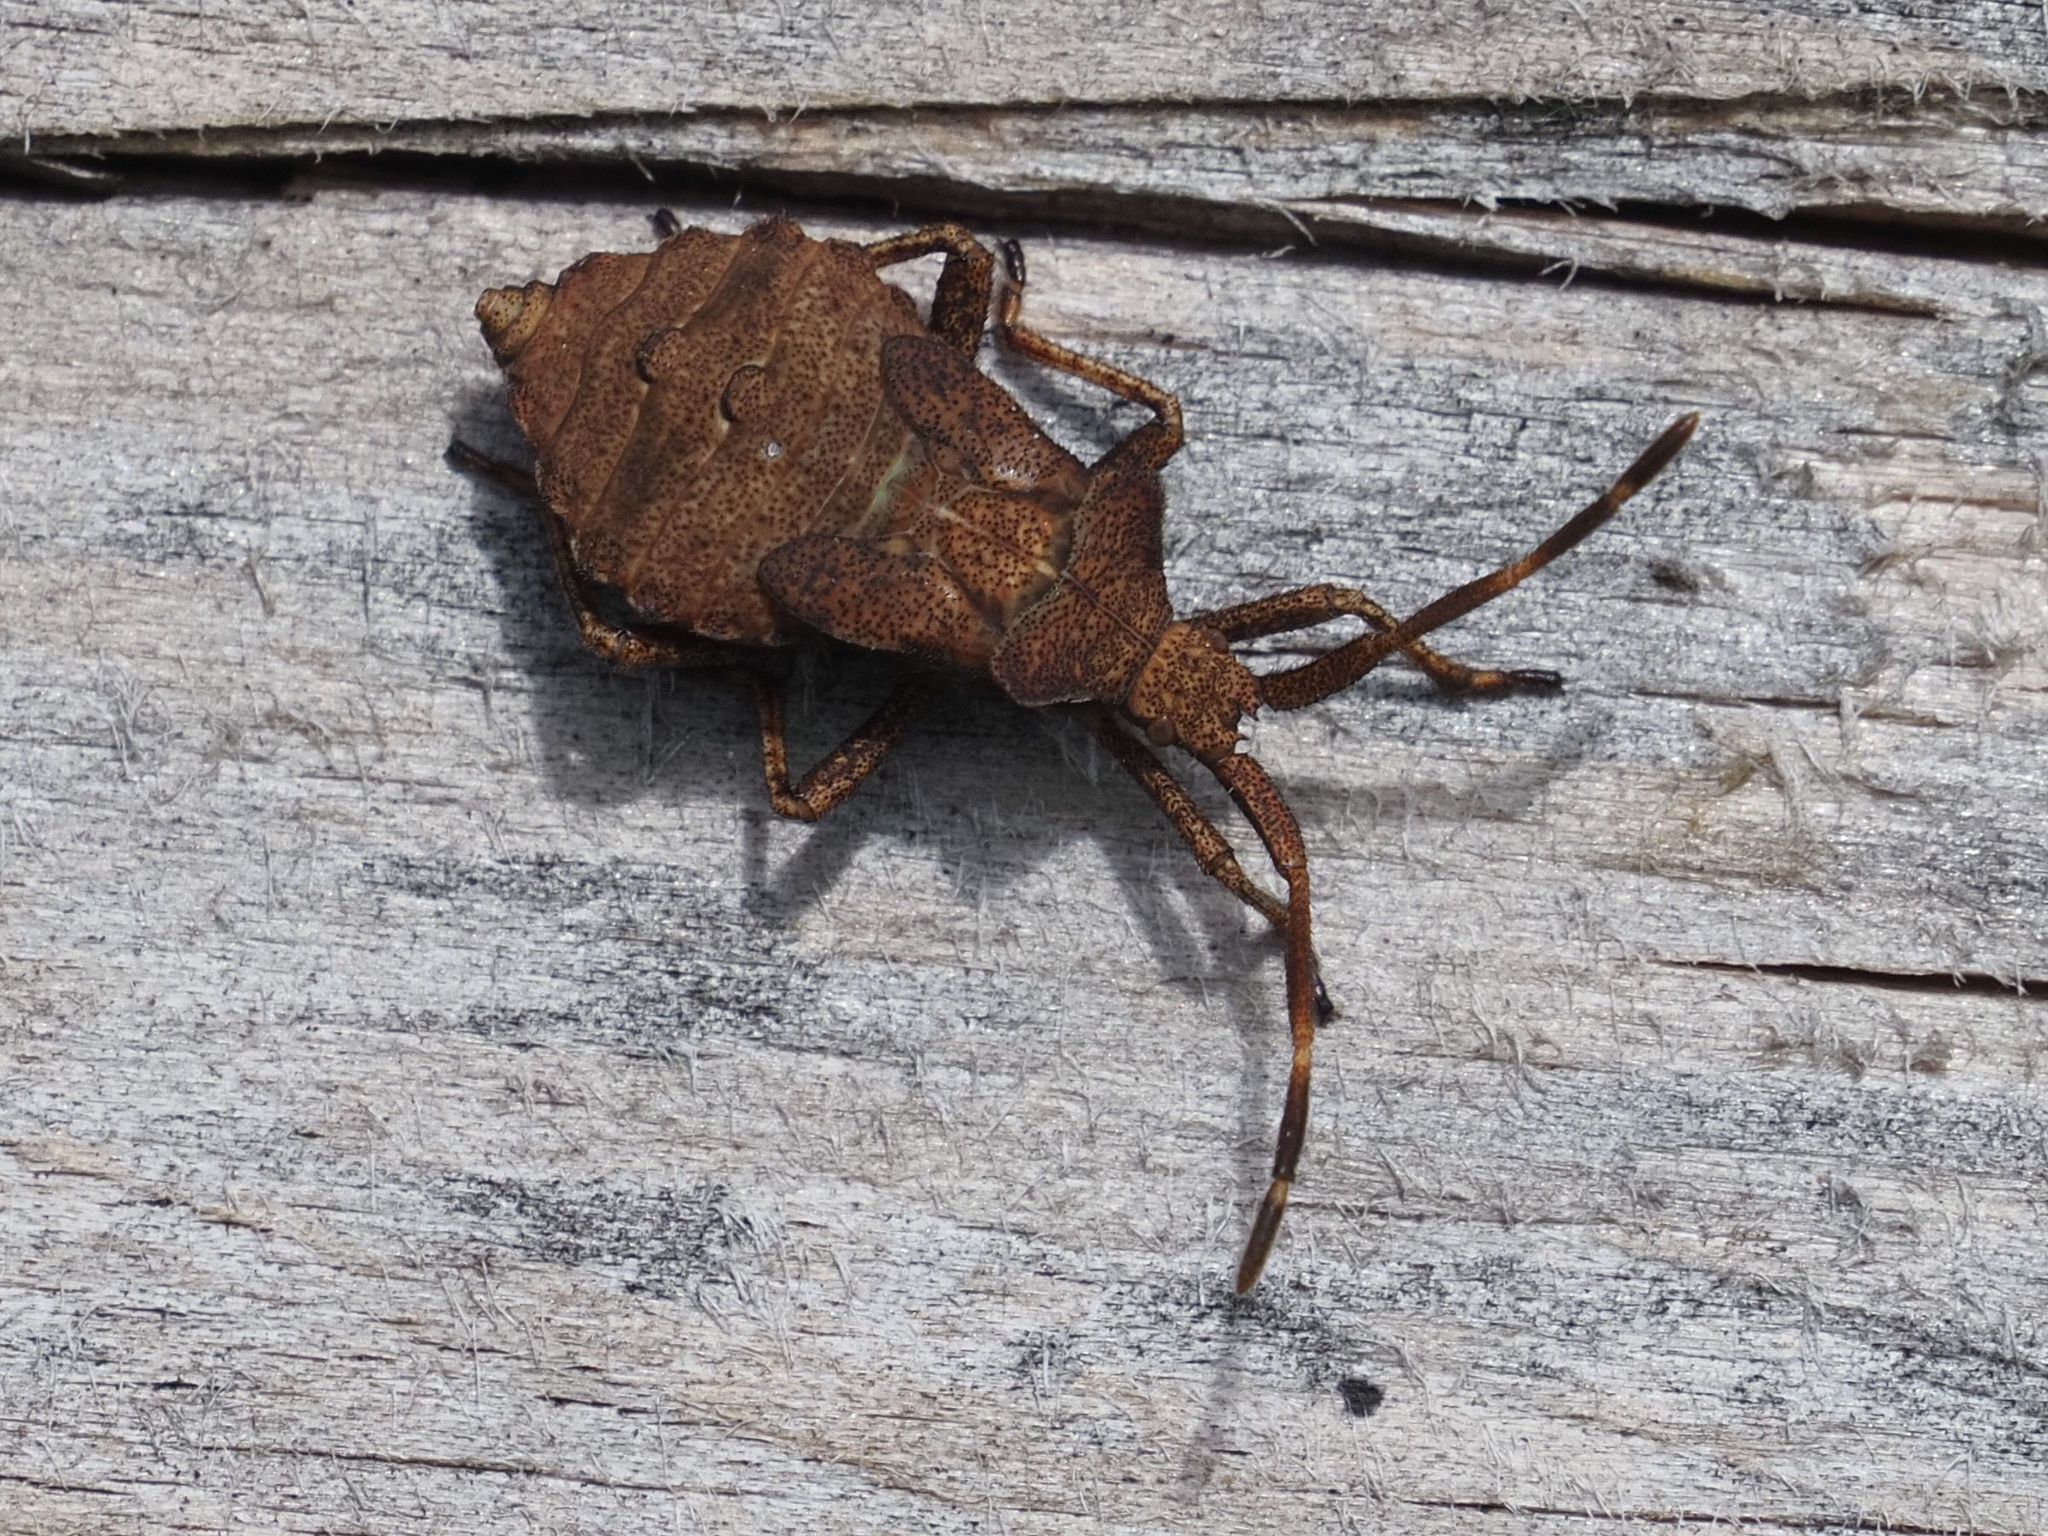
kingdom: Animalia
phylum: Arthropoda
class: Insecta
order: Hemiptera
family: Coreidae
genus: Coreus
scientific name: Coreus marginatus
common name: Dock bug
